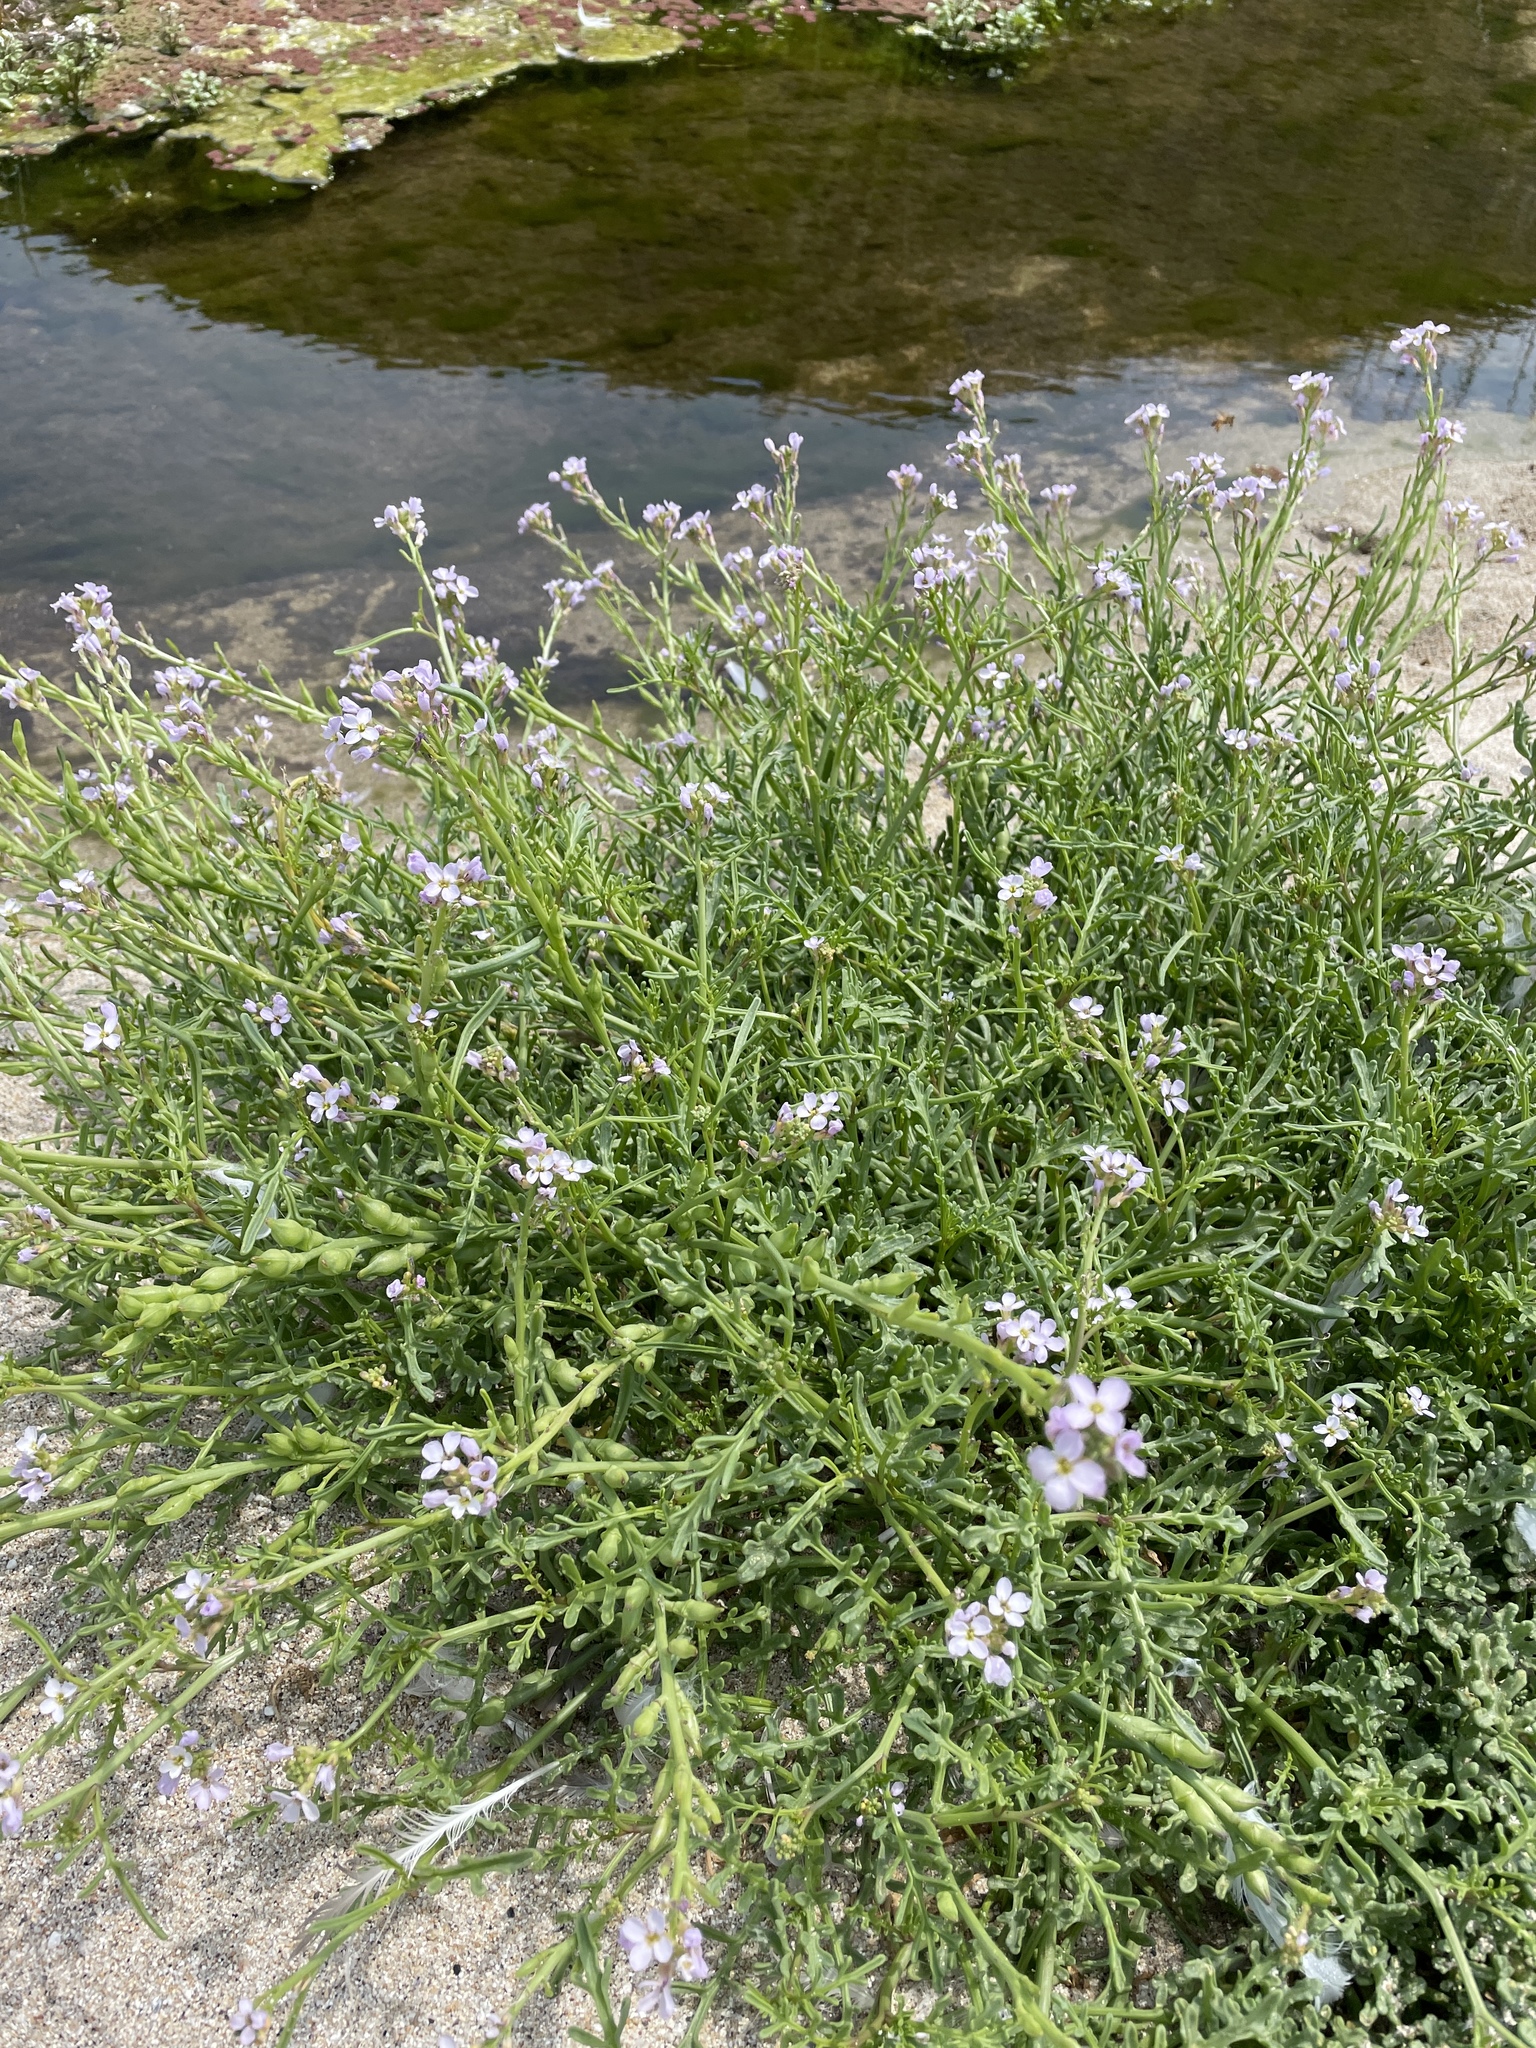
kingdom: Plantae
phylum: Tracheophyta
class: Magnoliopsida
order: Brassicales
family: Brassicaceae
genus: Cakile
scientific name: Cakile maritima
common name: Sea rocket
